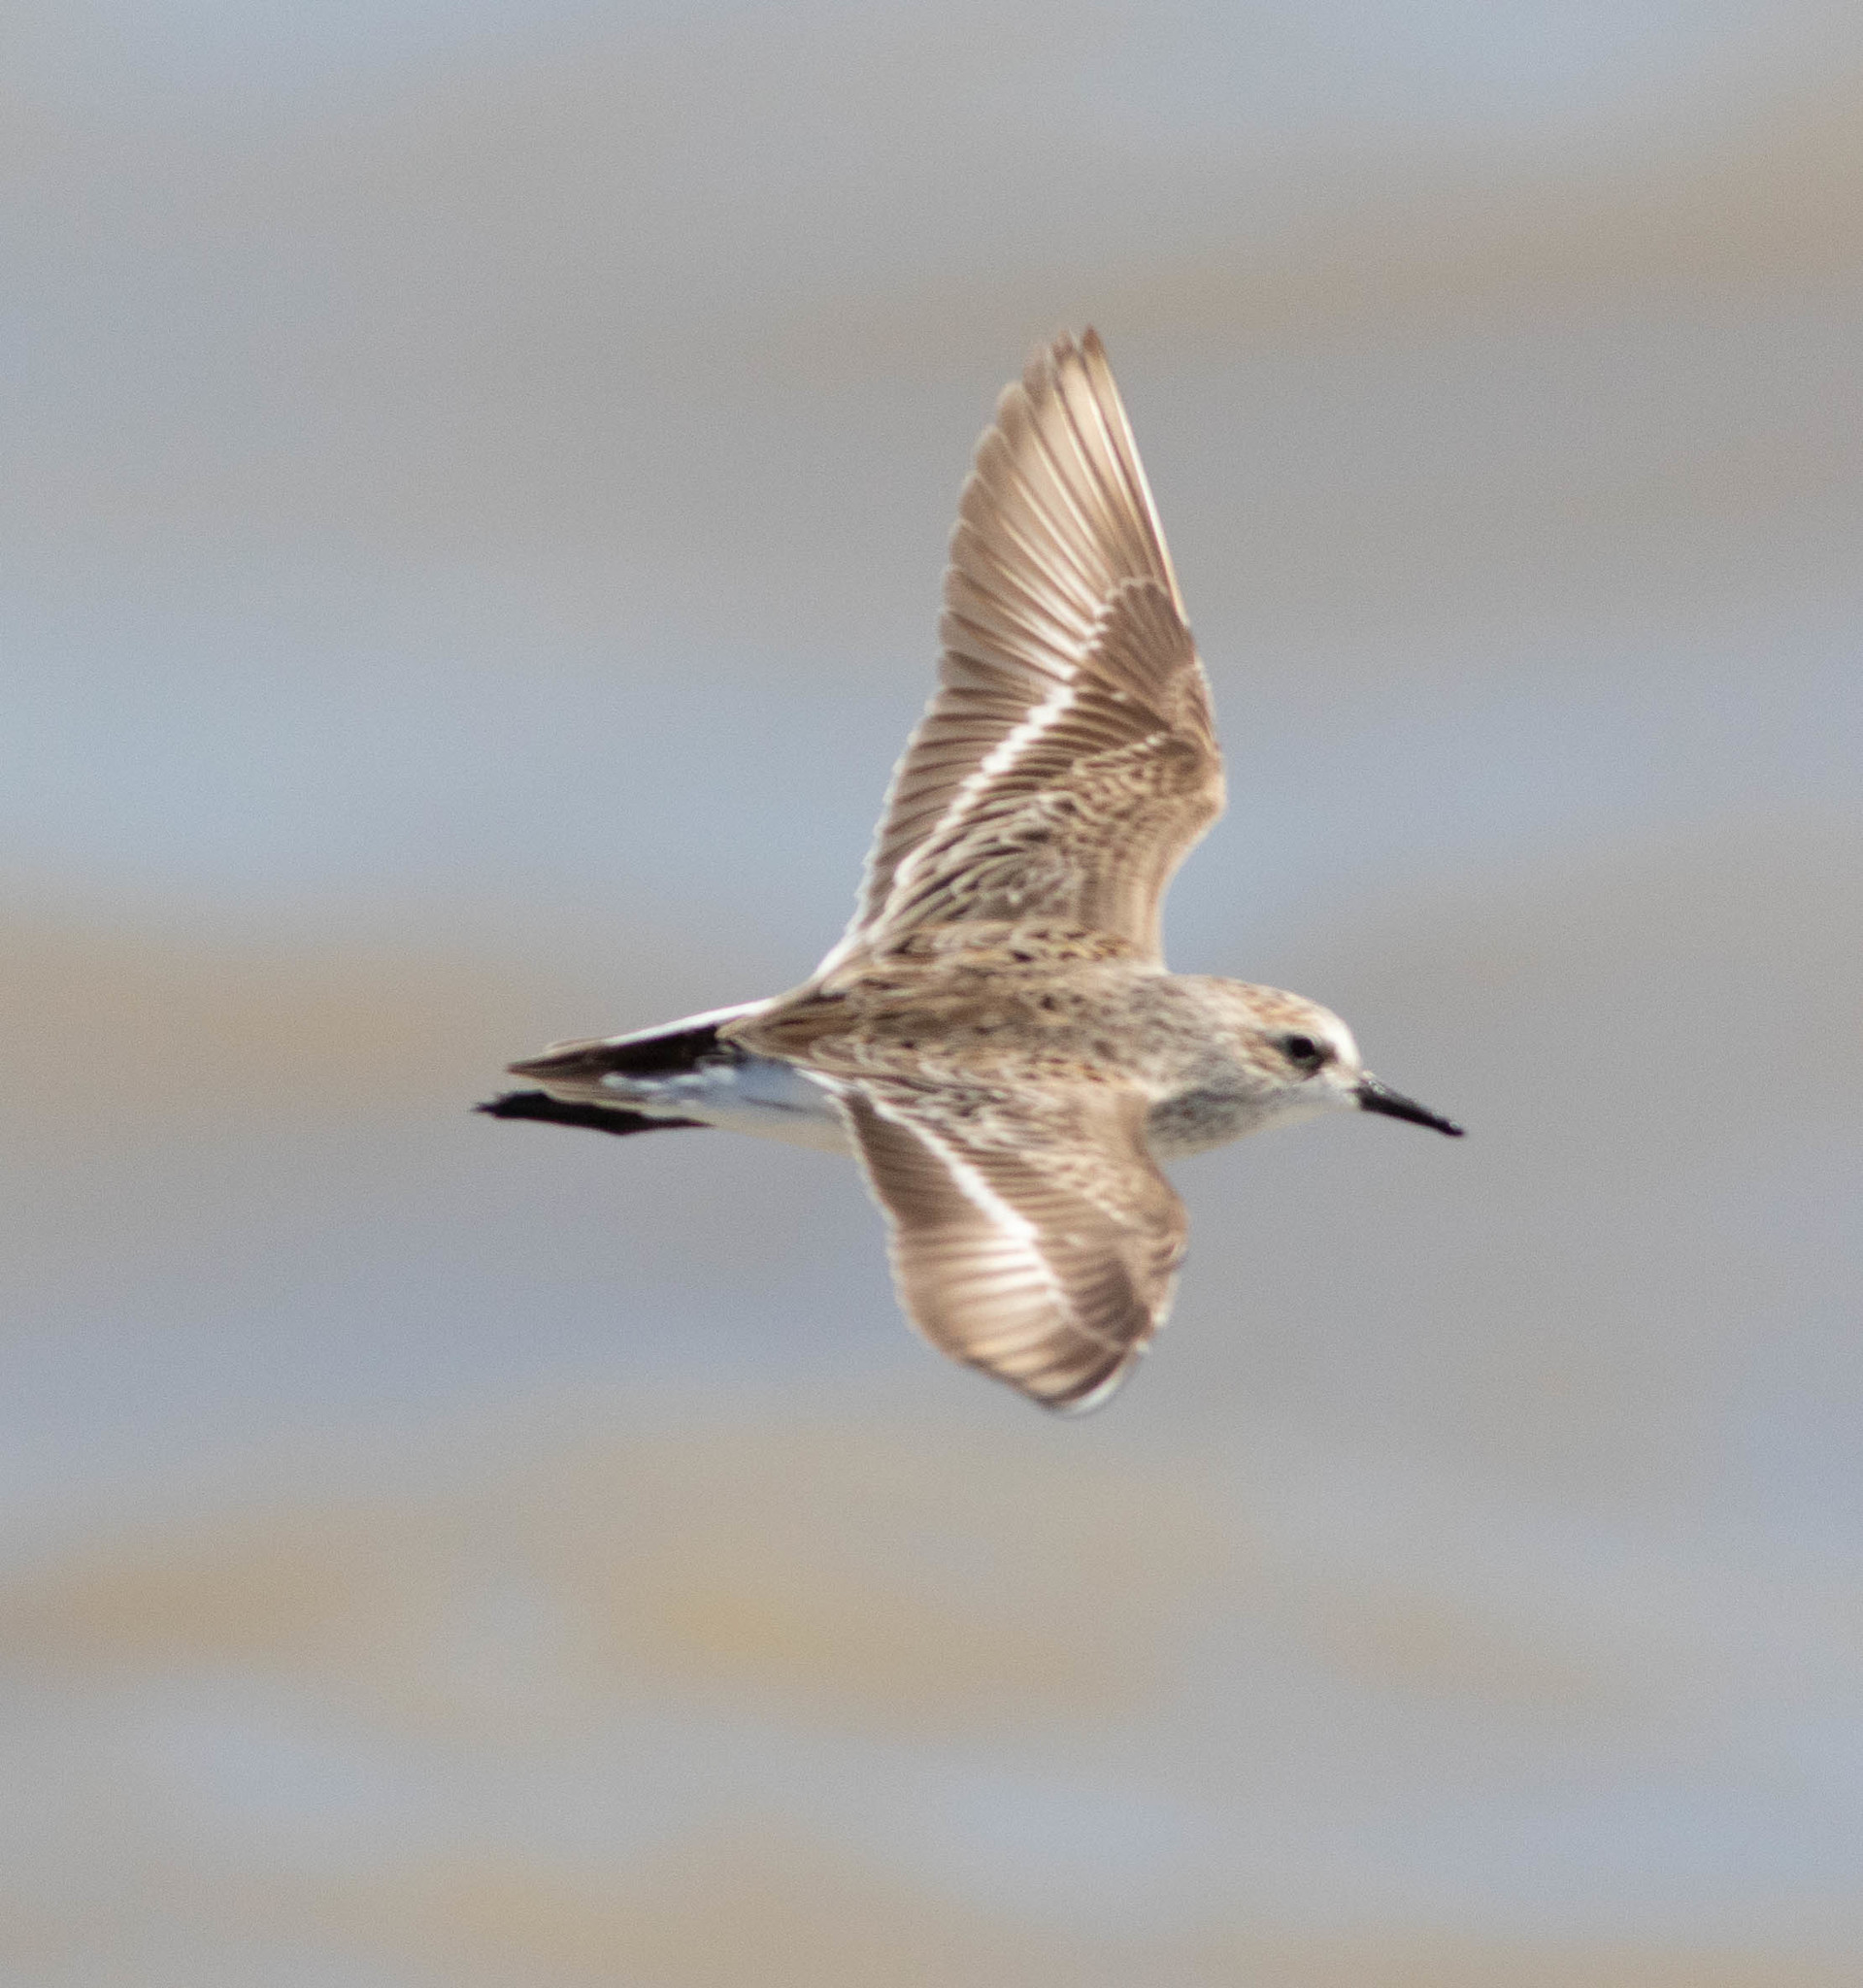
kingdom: Animalia
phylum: Chordata
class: Aves
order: Charadriiformes
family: Scolopacidae
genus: Calidris
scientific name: Calidris alba
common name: Sanderling
